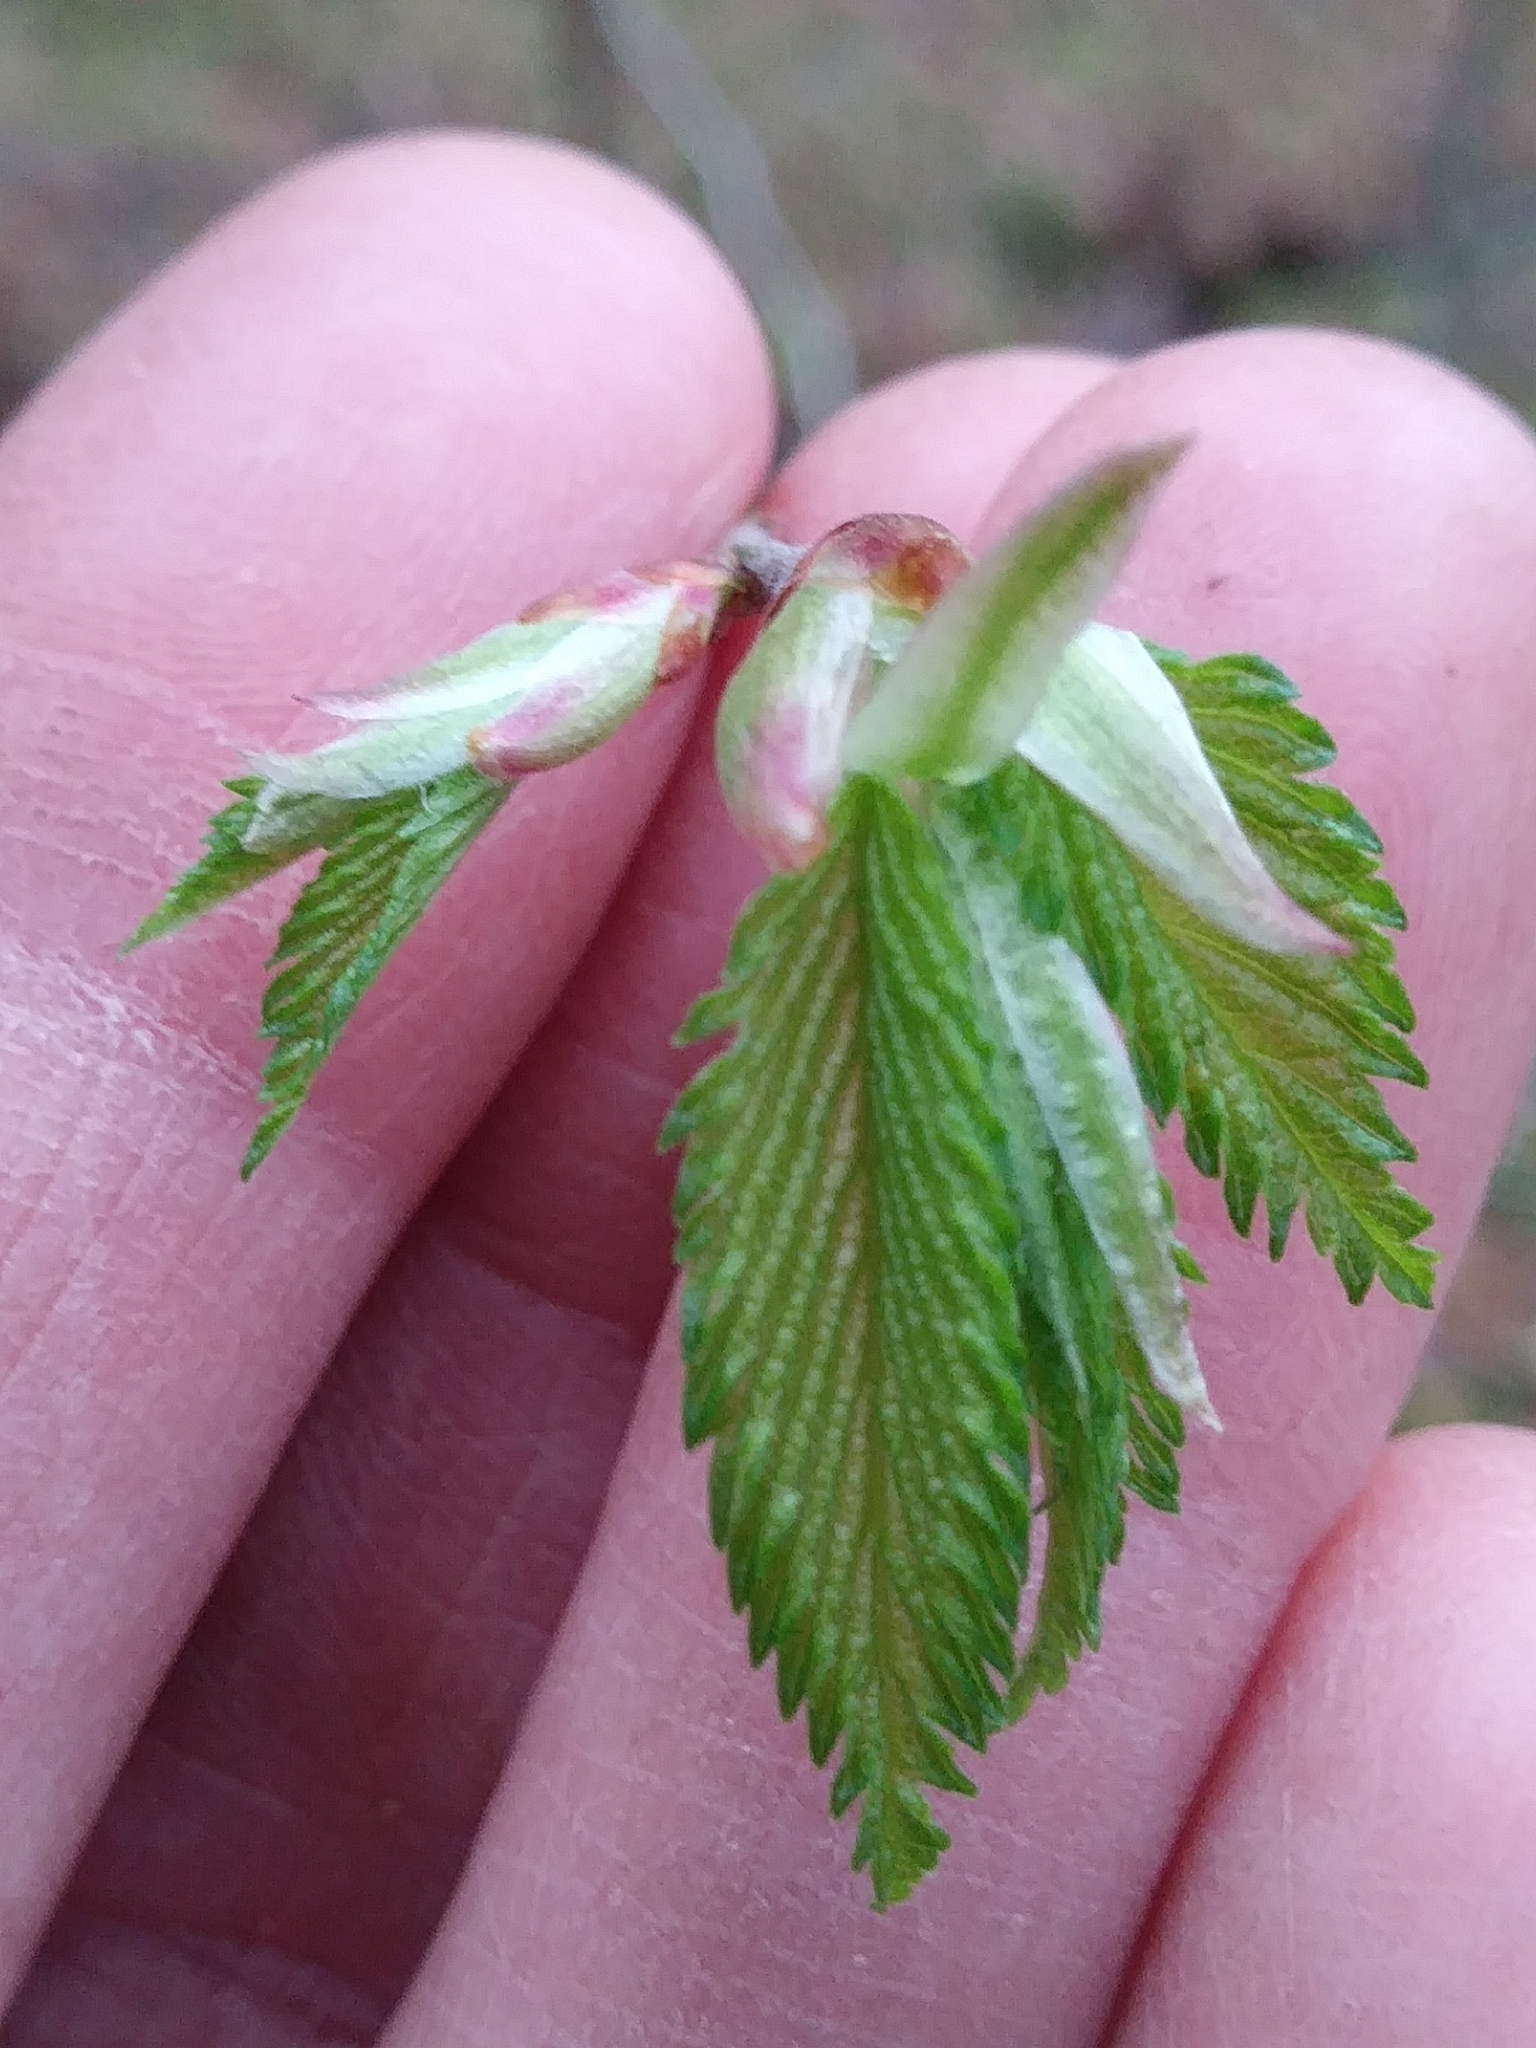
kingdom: Plantae
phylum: Tracheophyta
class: Magnoliopsida
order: Rosales
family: Ulmaceae
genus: Ulmus
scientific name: Ulmus americana
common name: American elm
